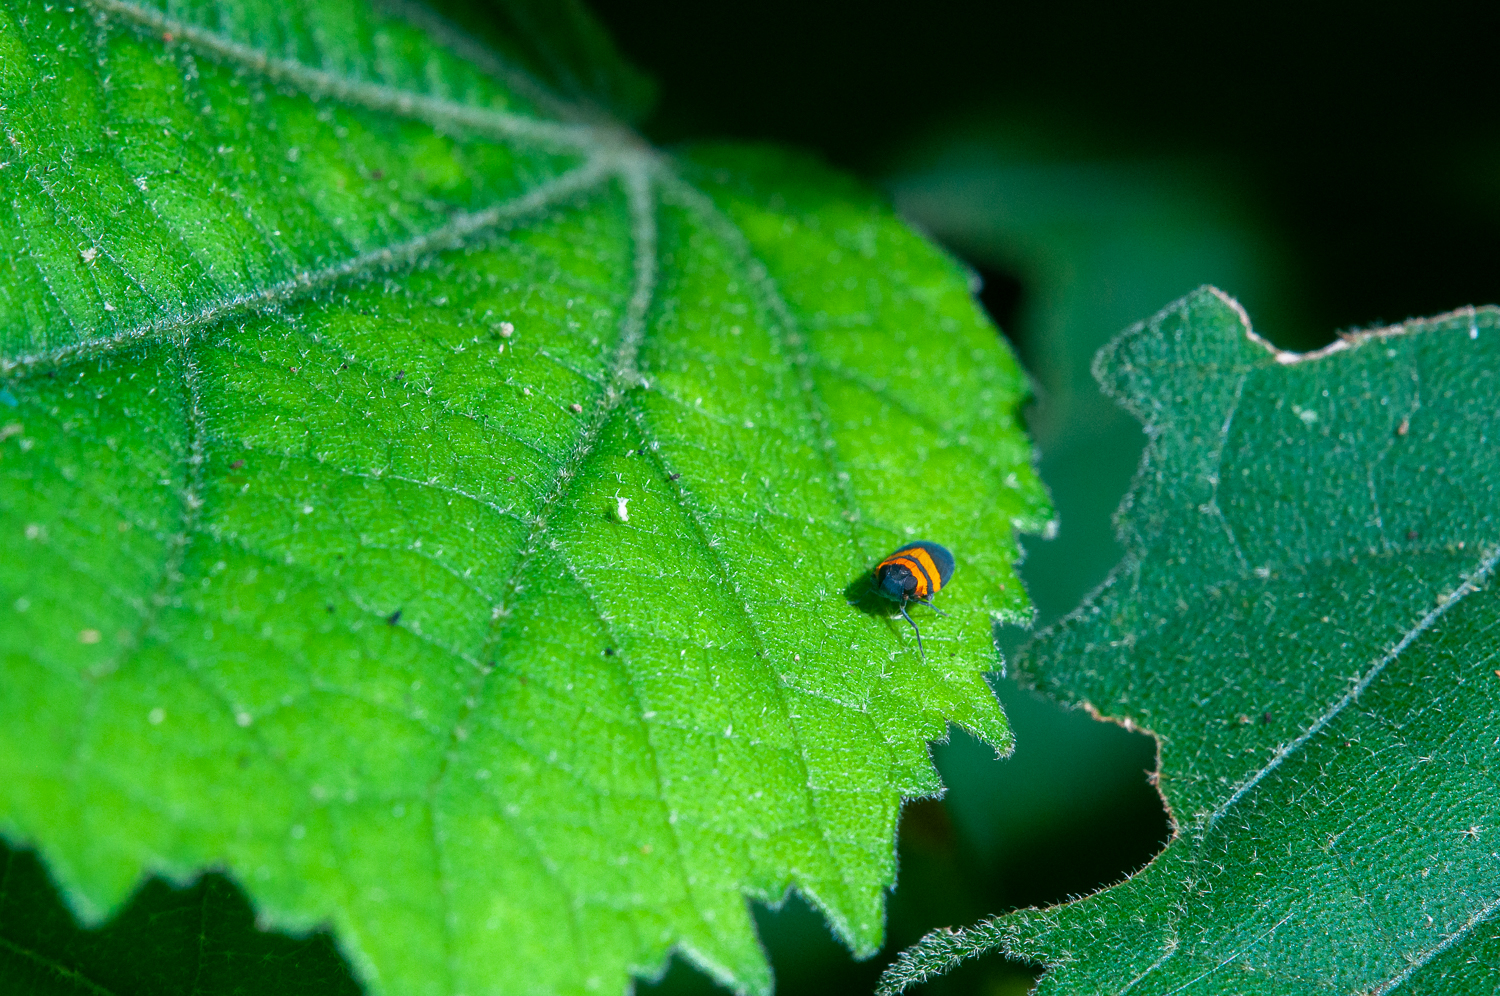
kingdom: Animalia
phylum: Arthropoda
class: Insecta
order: Hemiptera
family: Achilidae
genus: Plectoderes
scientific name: Plectoderes flavovittatus
